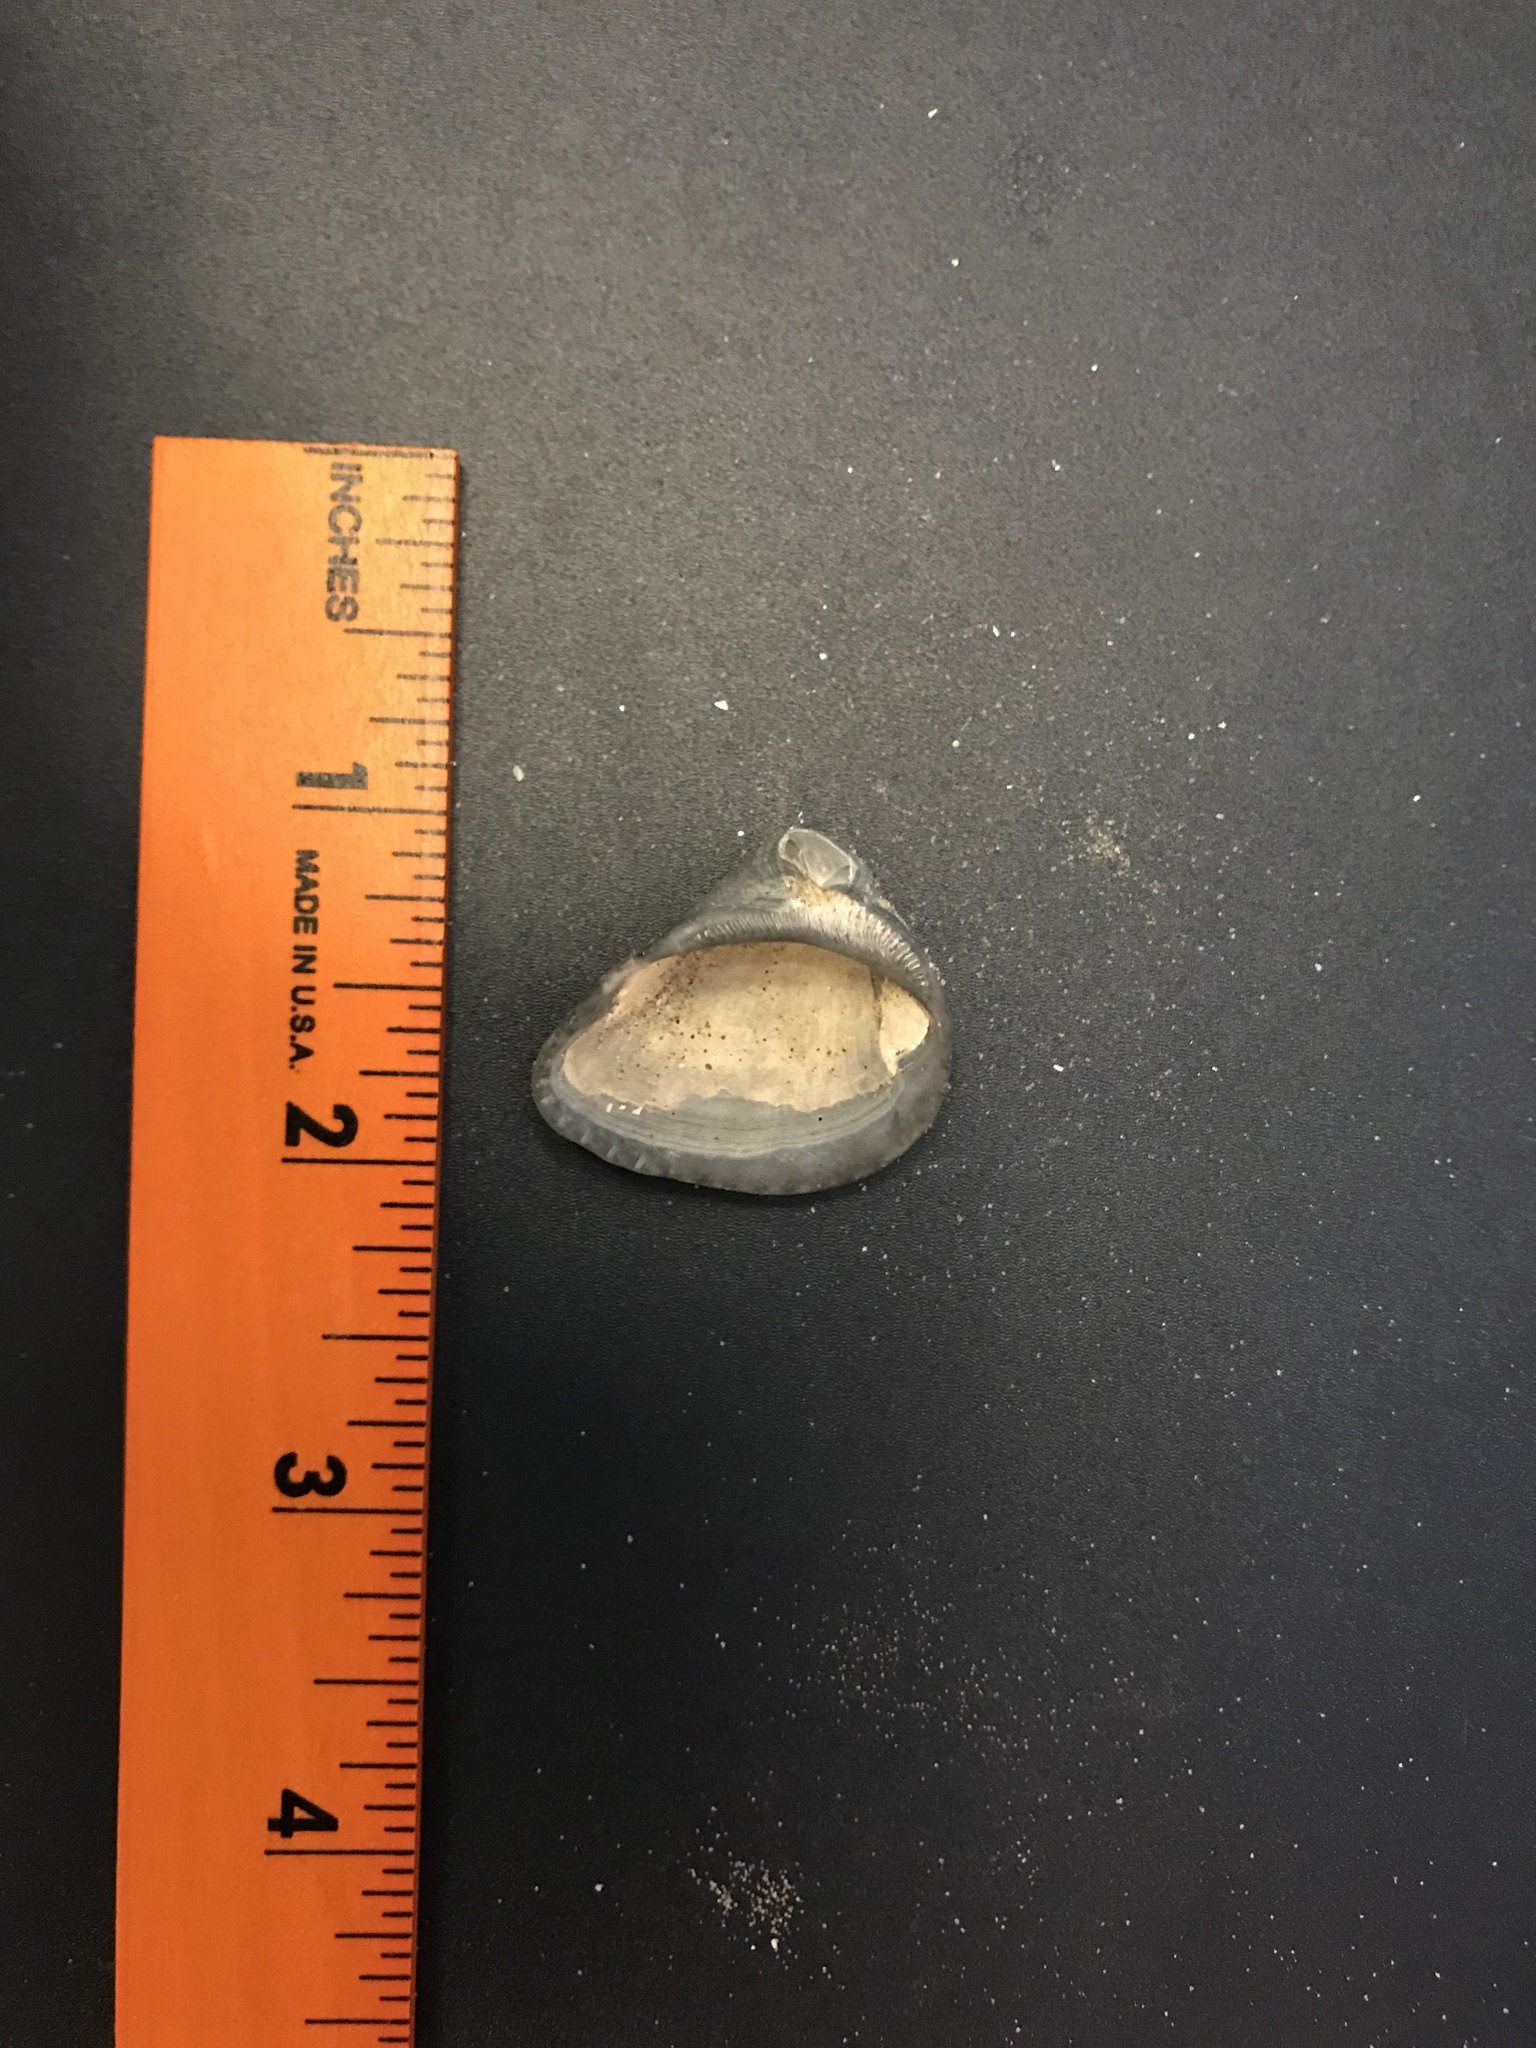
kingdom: Animalia
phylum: Mollusca
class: Bivalvia
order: Arcida
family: Noetiidae
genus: Noetia
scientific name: Noetia ponderosa
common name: Ponderous ark
